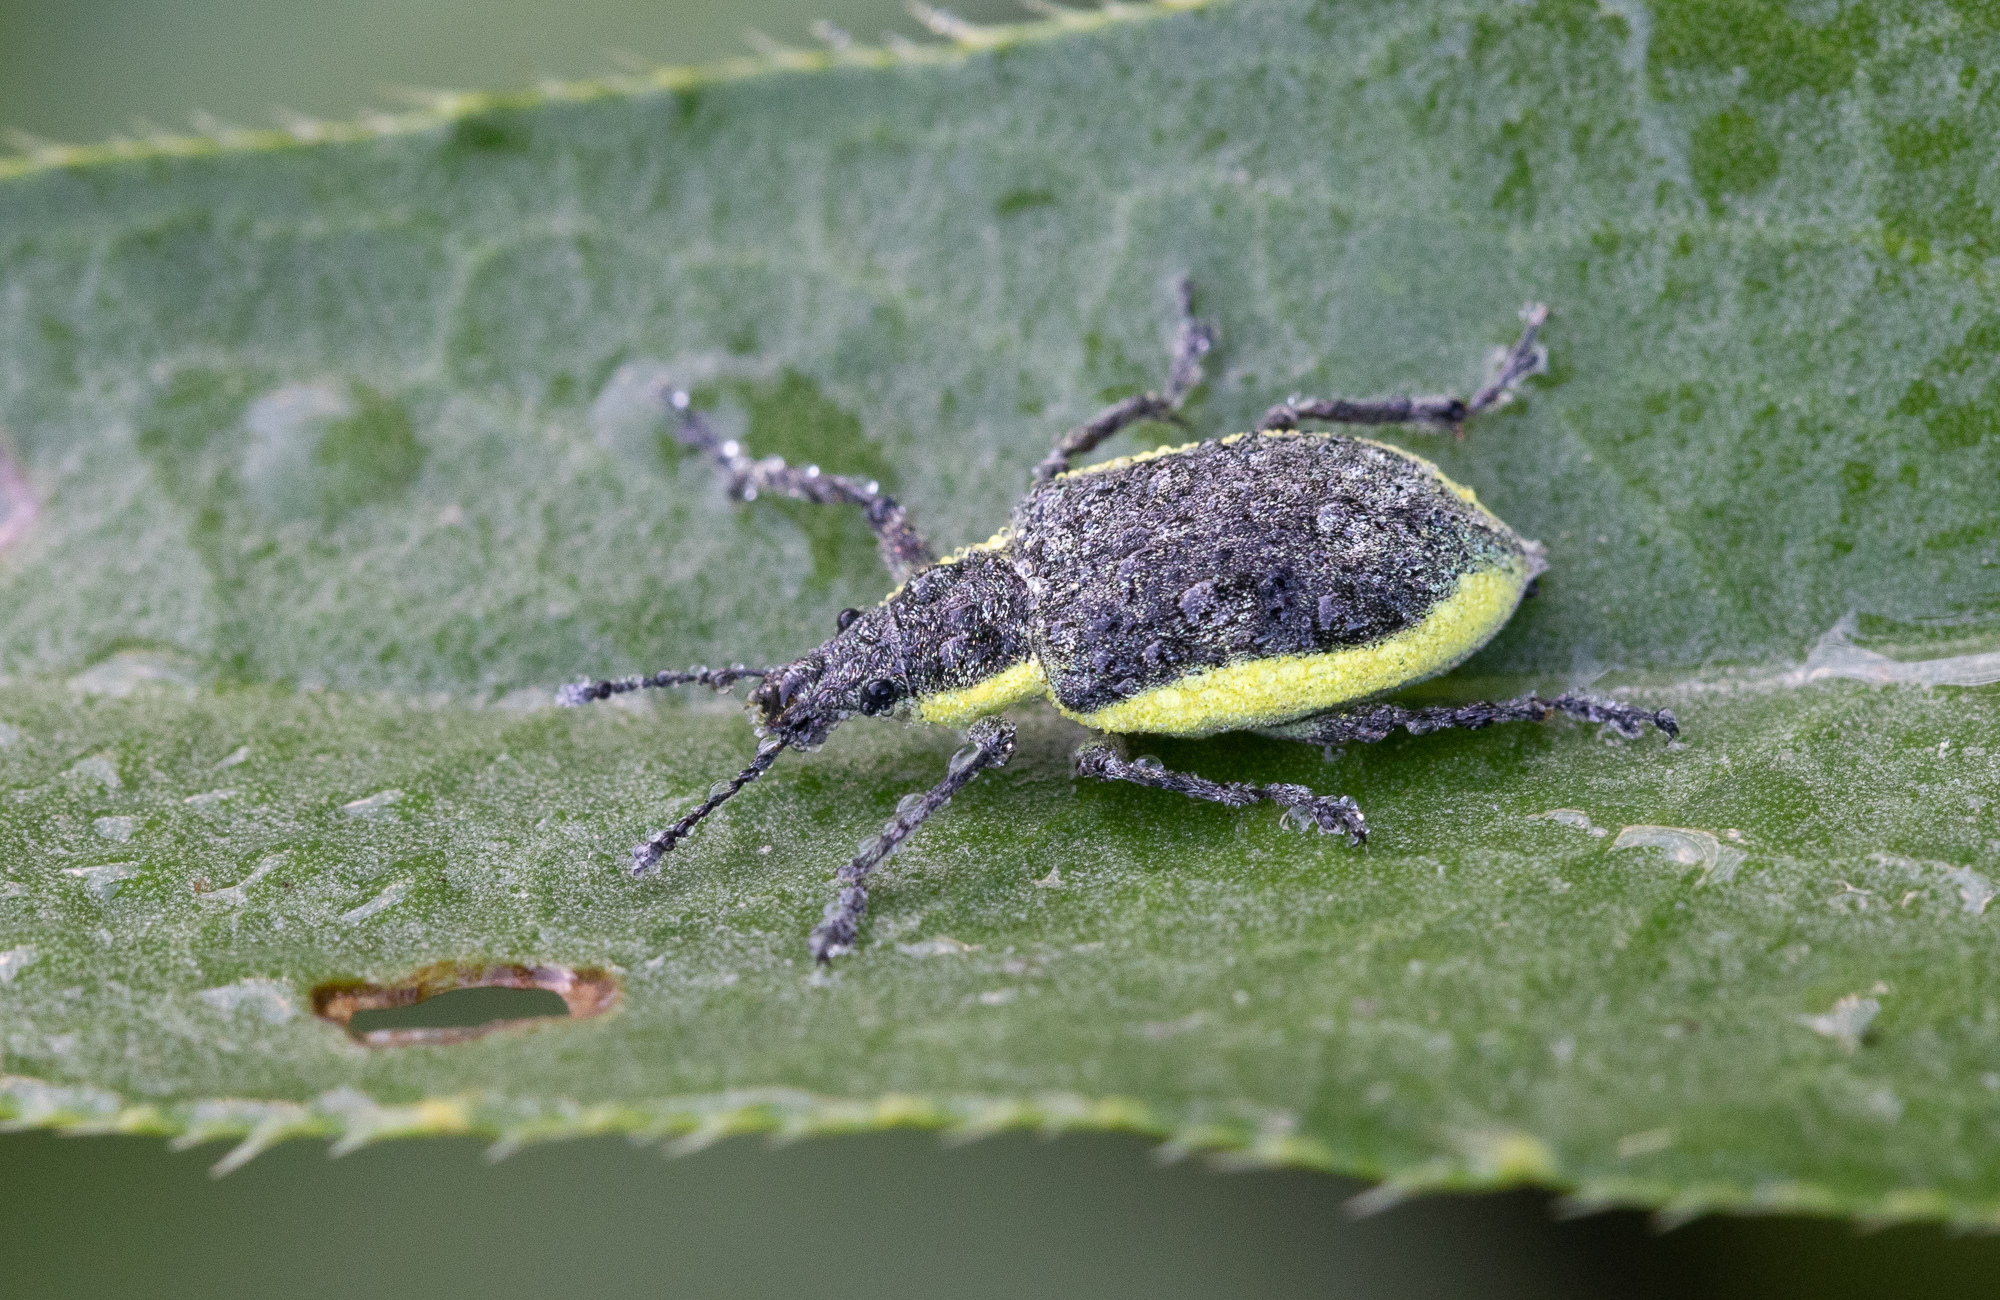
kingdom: Animalia
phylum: Arthropoda
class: Insecta
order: Coleoptera
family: Curculionidae
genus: Chlorophanus
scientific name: Chlorophanus viridis
